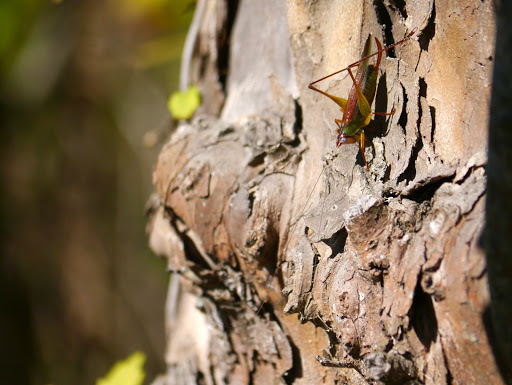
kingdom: Animalia
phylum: Arthropoda
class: Insecta
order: Orthoptera
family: Tettigoniidae
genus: Orchelimum
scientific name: Orchelimum pulchellum
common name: Handsome meadow katydid
